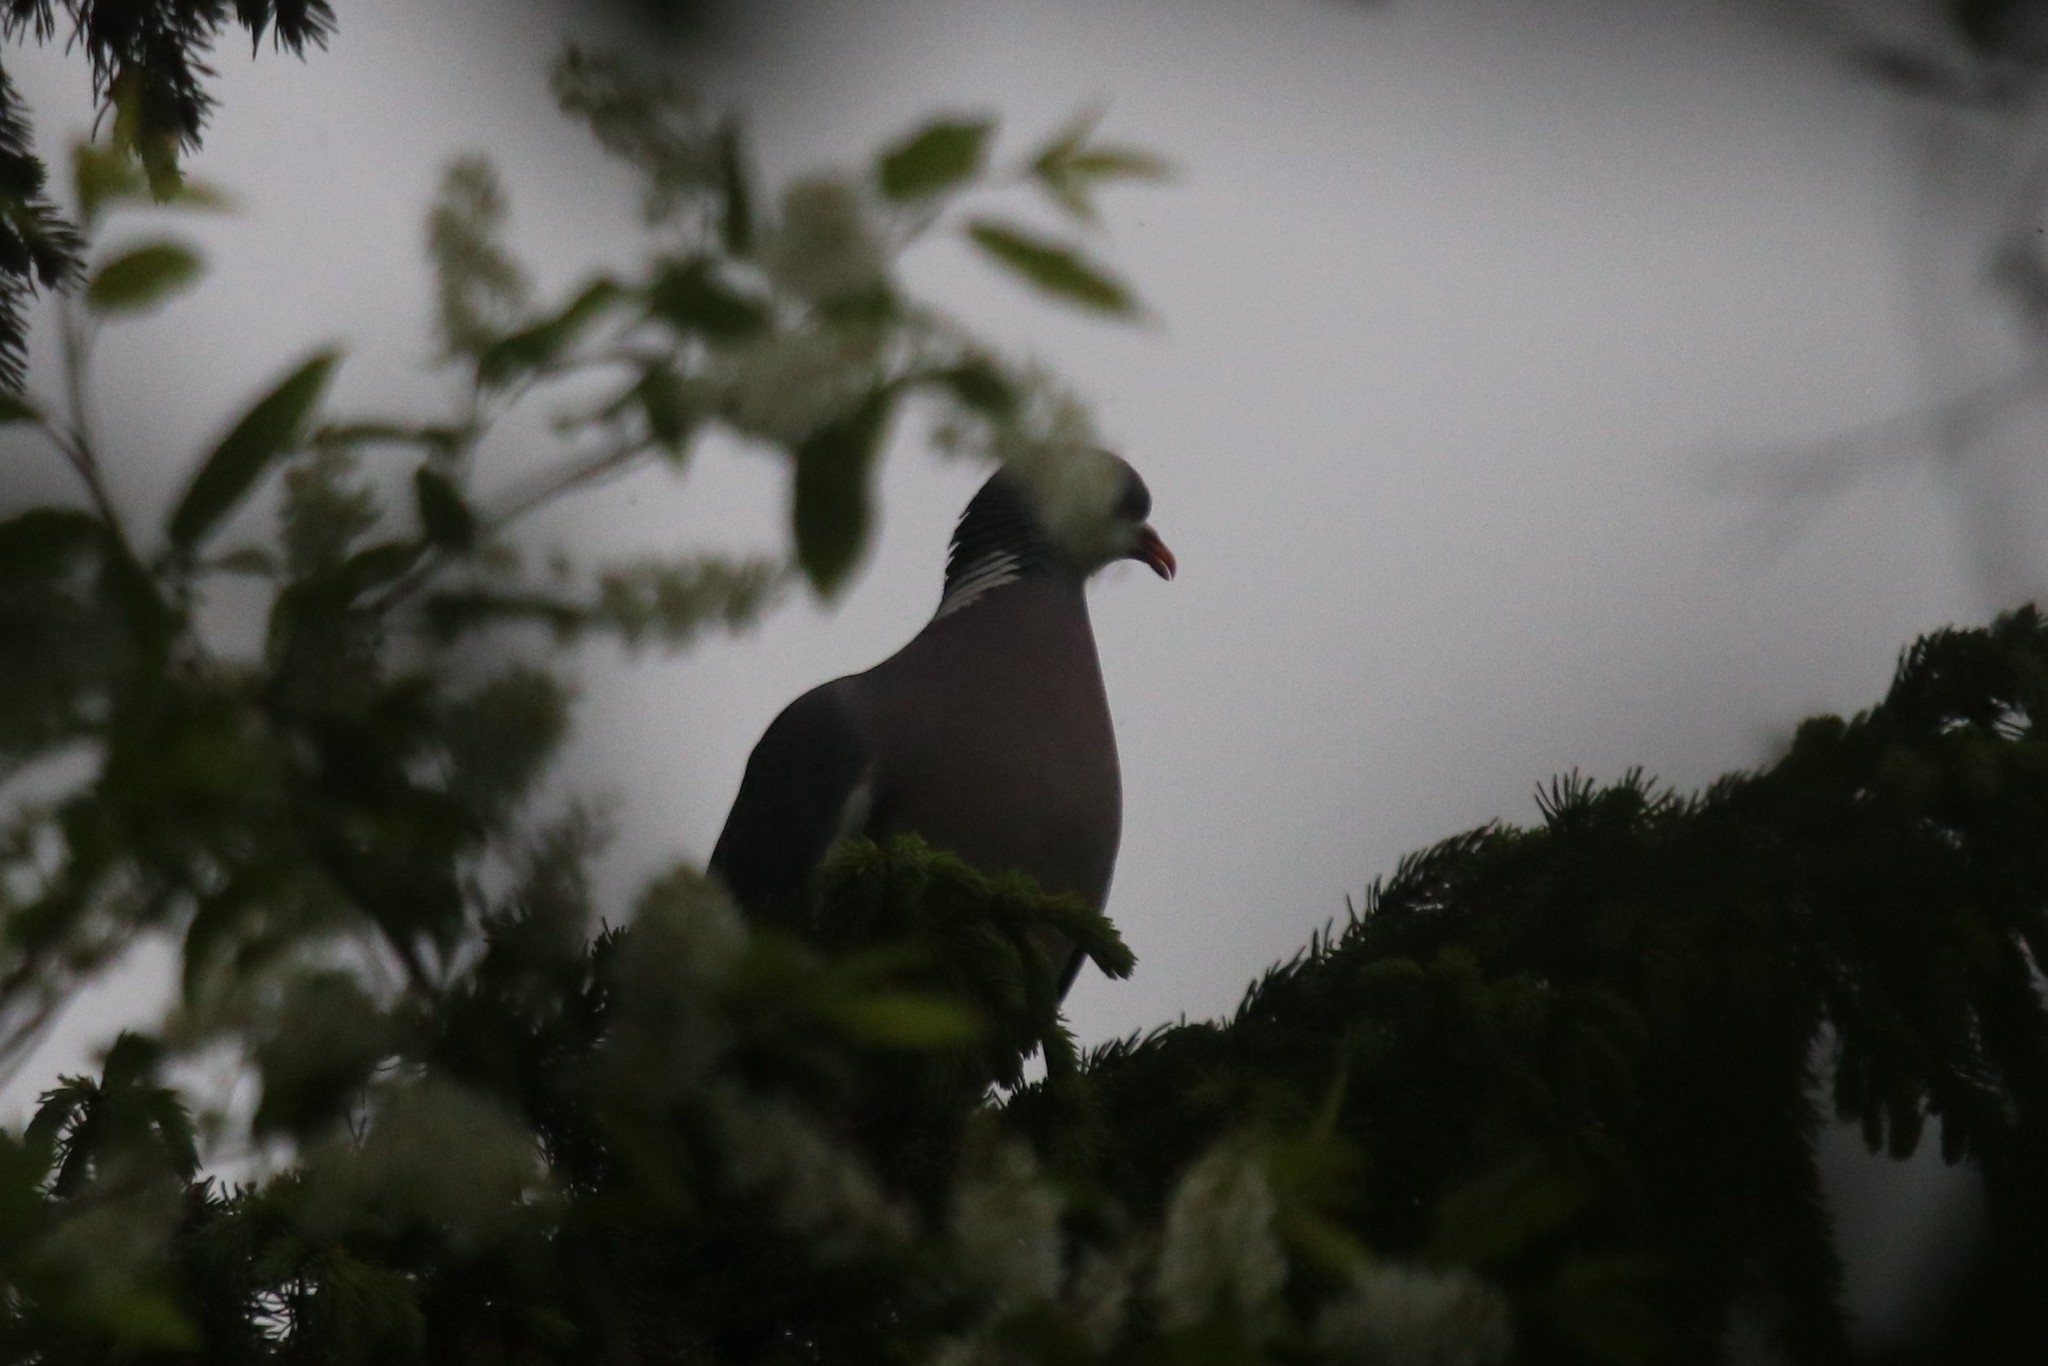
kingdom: Animalia
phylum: Chordata
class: Aves
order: Columbiformes
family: Columbidae
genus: Columba
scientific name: Columba palumbus
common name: Common wood pigeon
